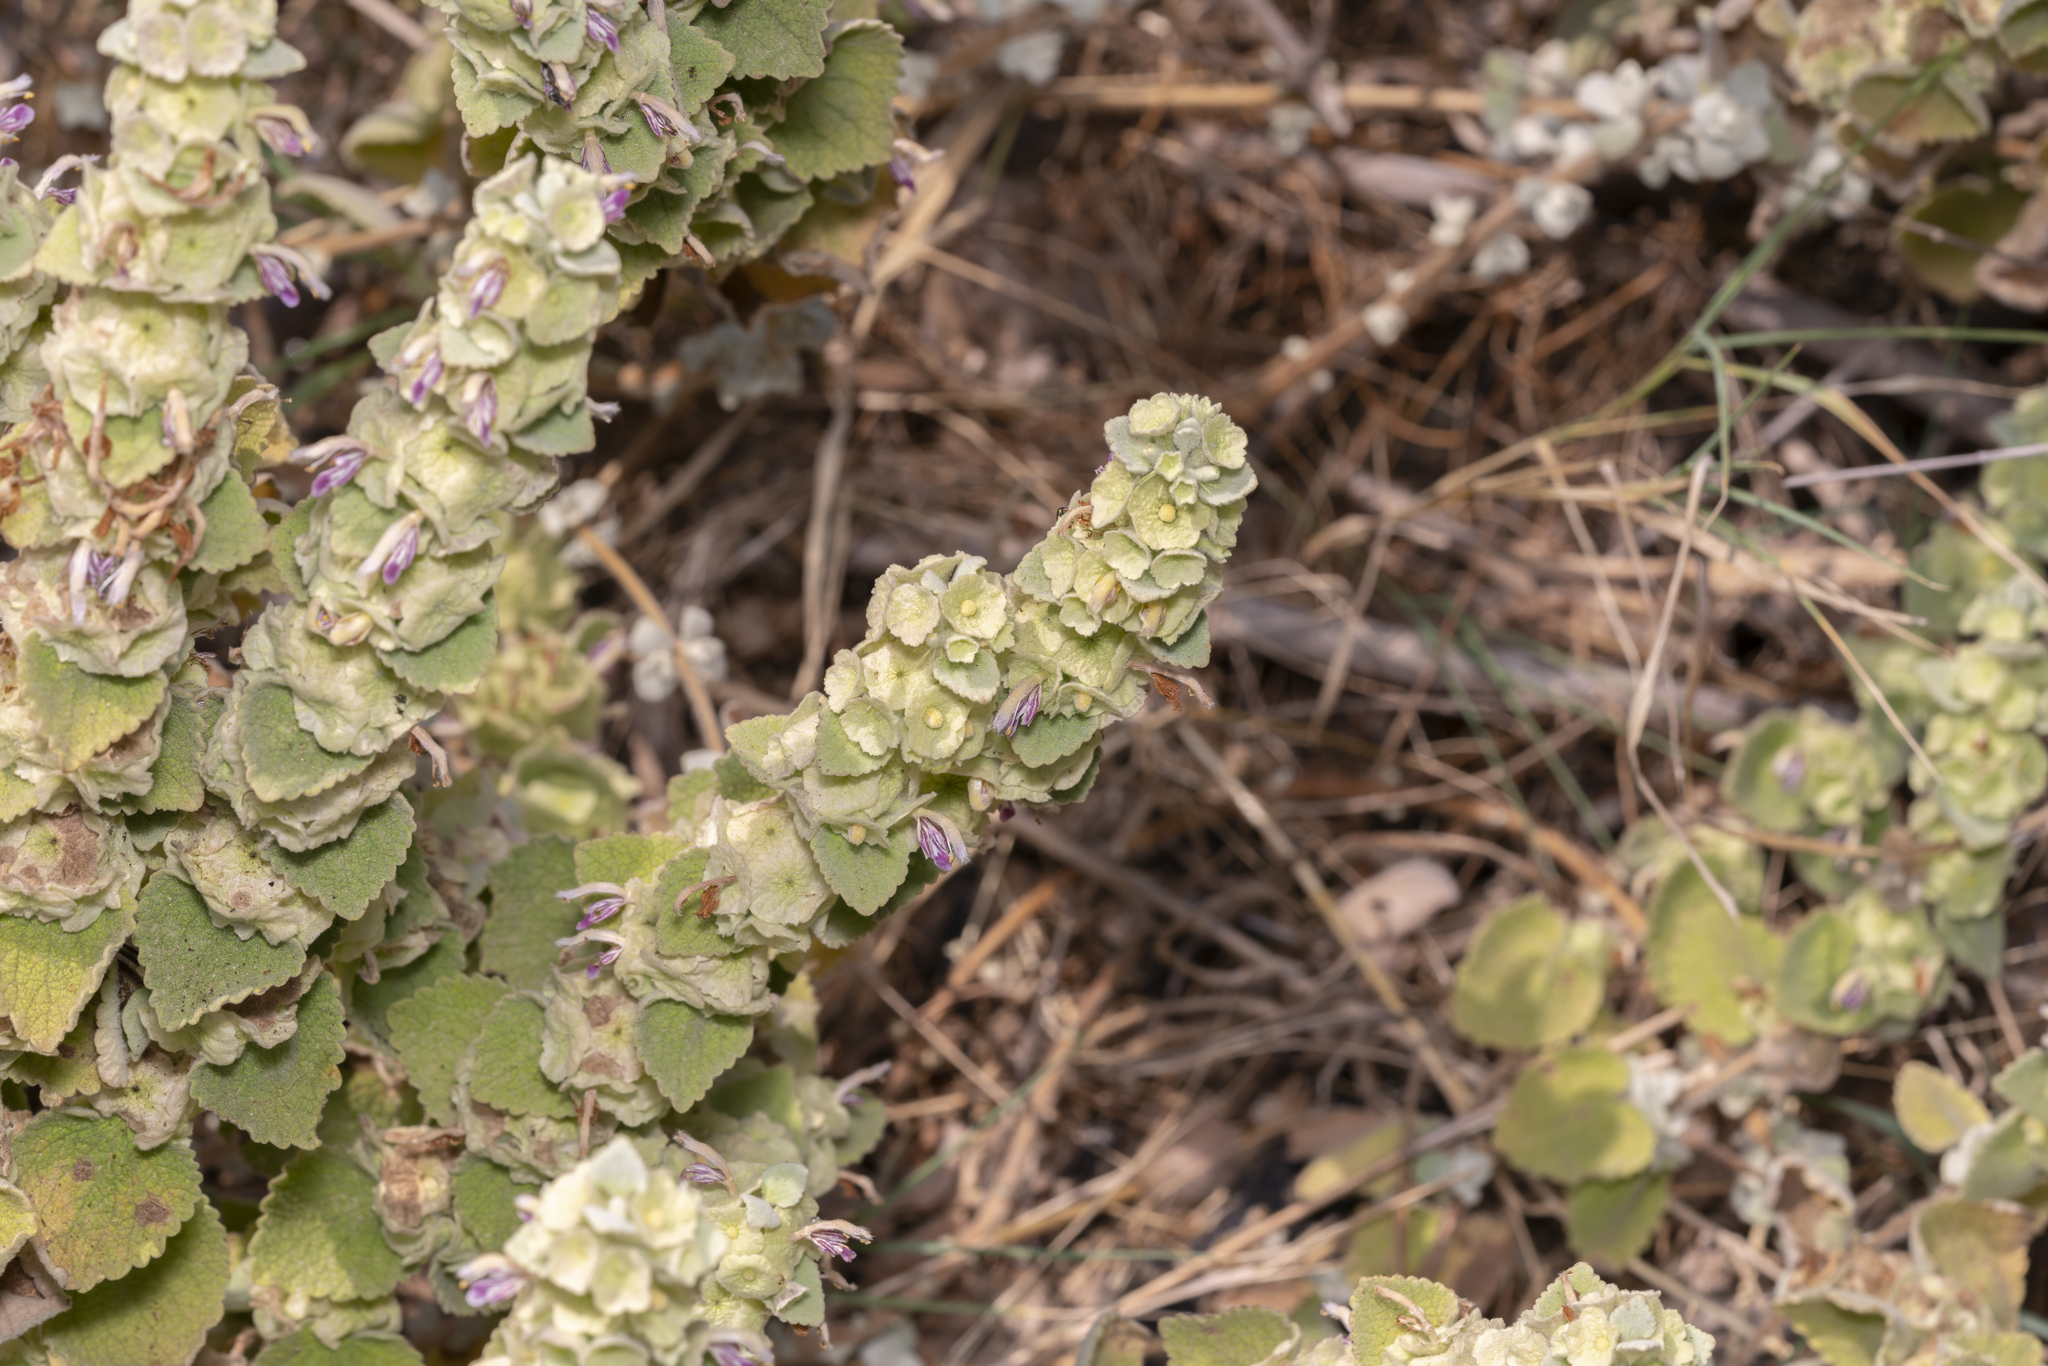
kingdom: Plantae
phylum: Tracheophyta
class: Magnoliopsida
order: Lamiales
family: Lamiaceae
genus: Pseudodictamnus
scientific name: Pseudodictamnus acetabulosus
